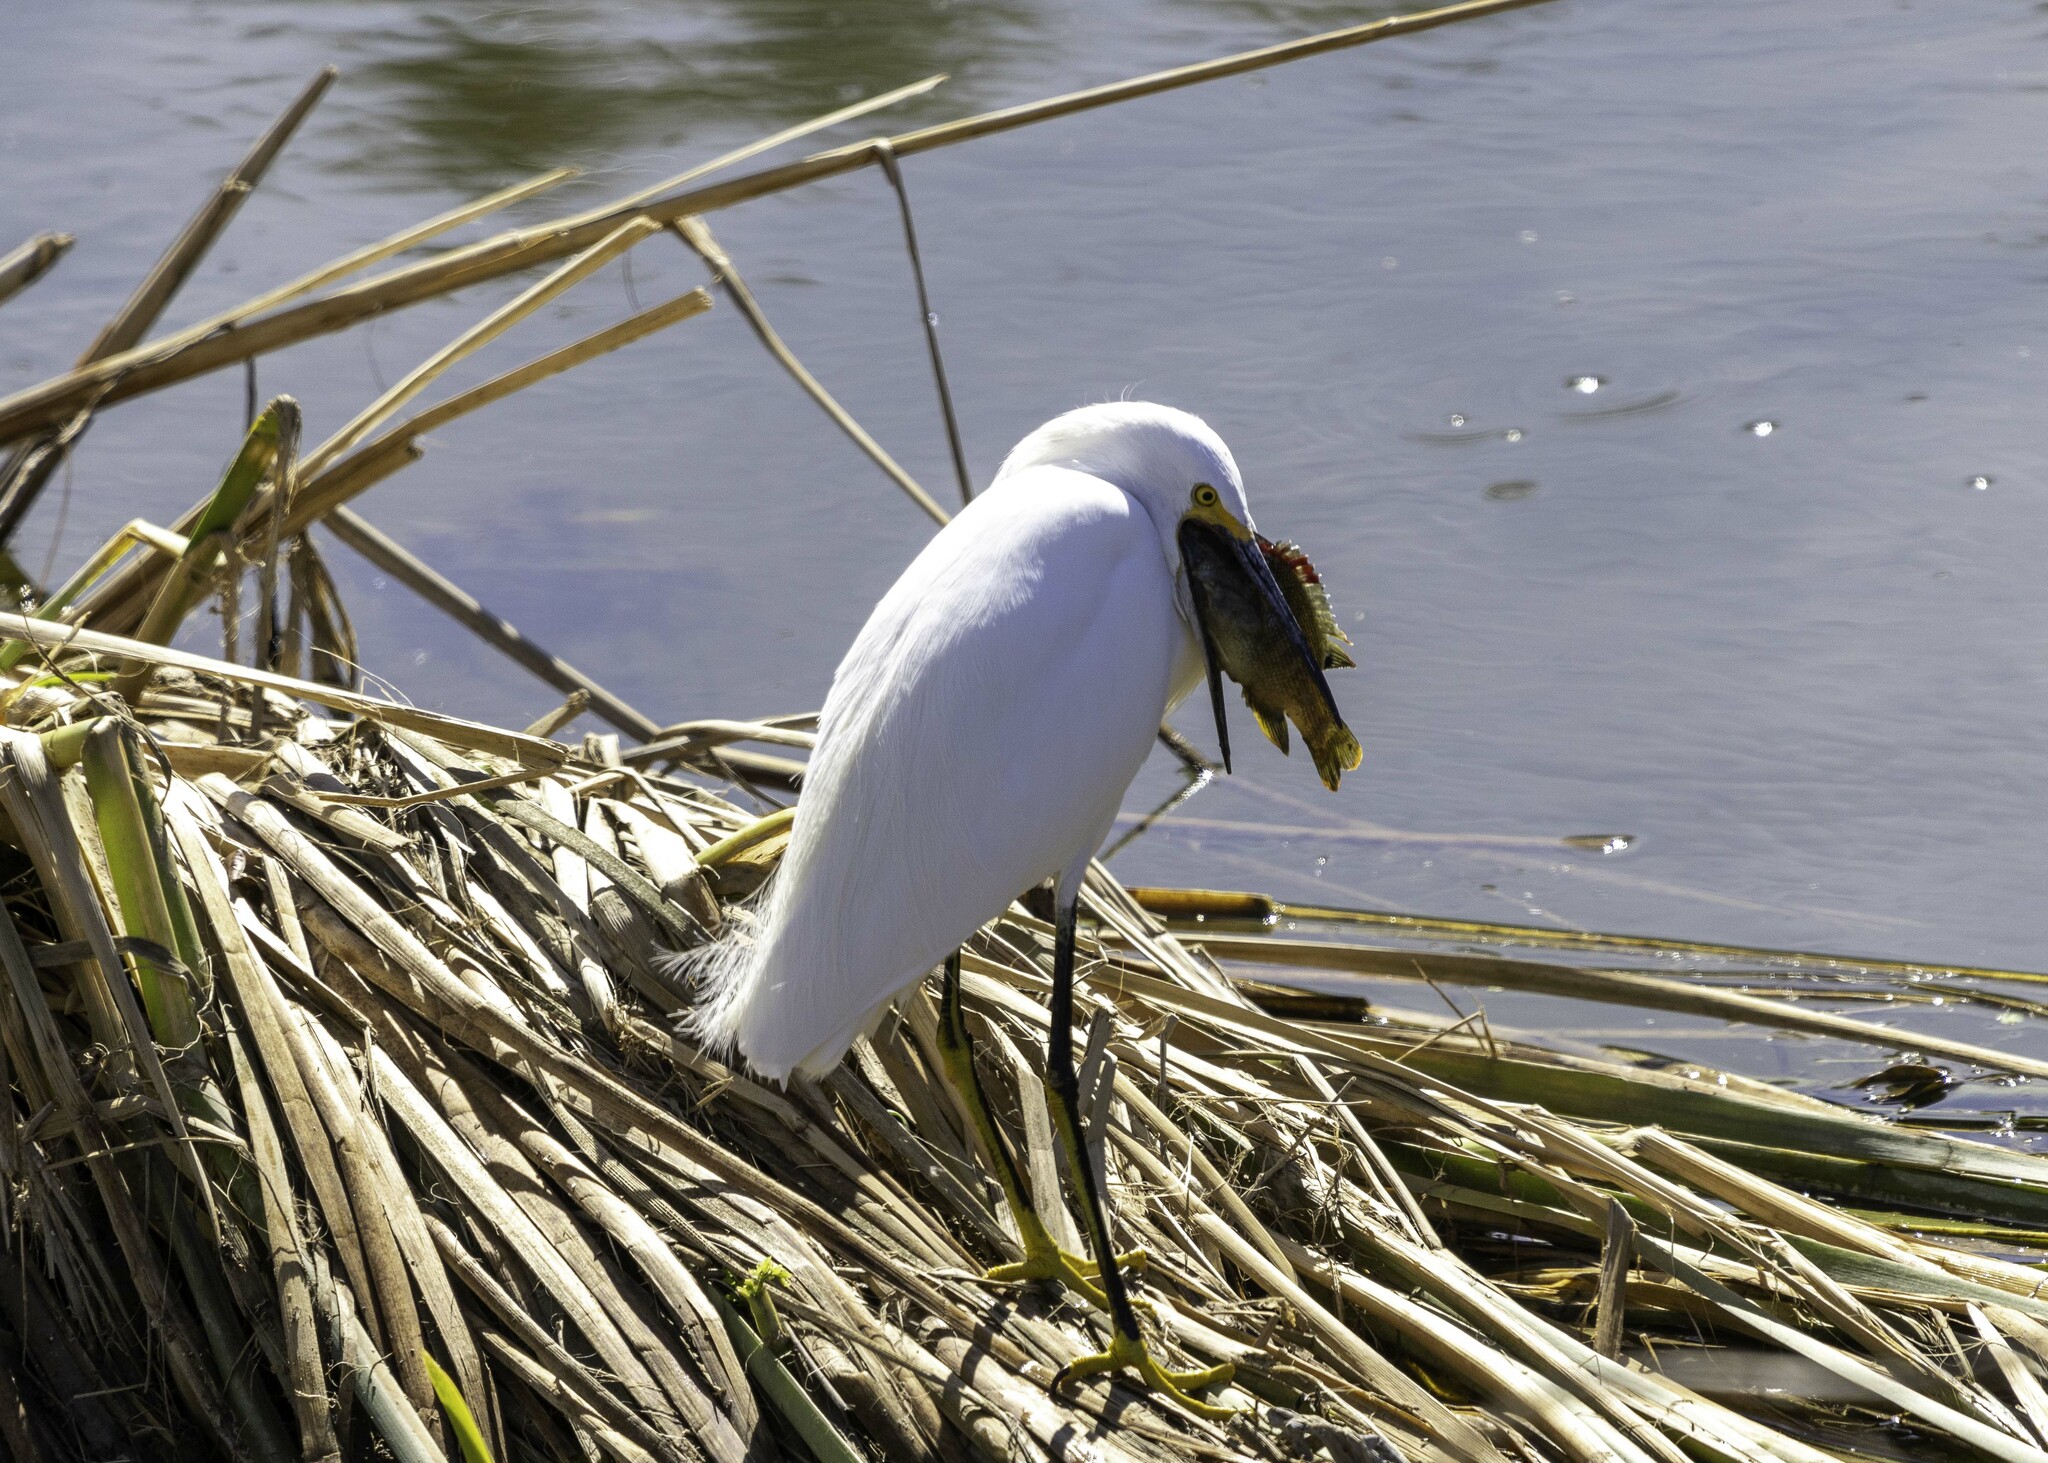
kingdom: Animalia
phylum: Chordata
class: Aves
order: Pelecaniformes
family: Ardeidae
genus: Egretta
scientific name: Egretta thula
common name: Snowy egret
